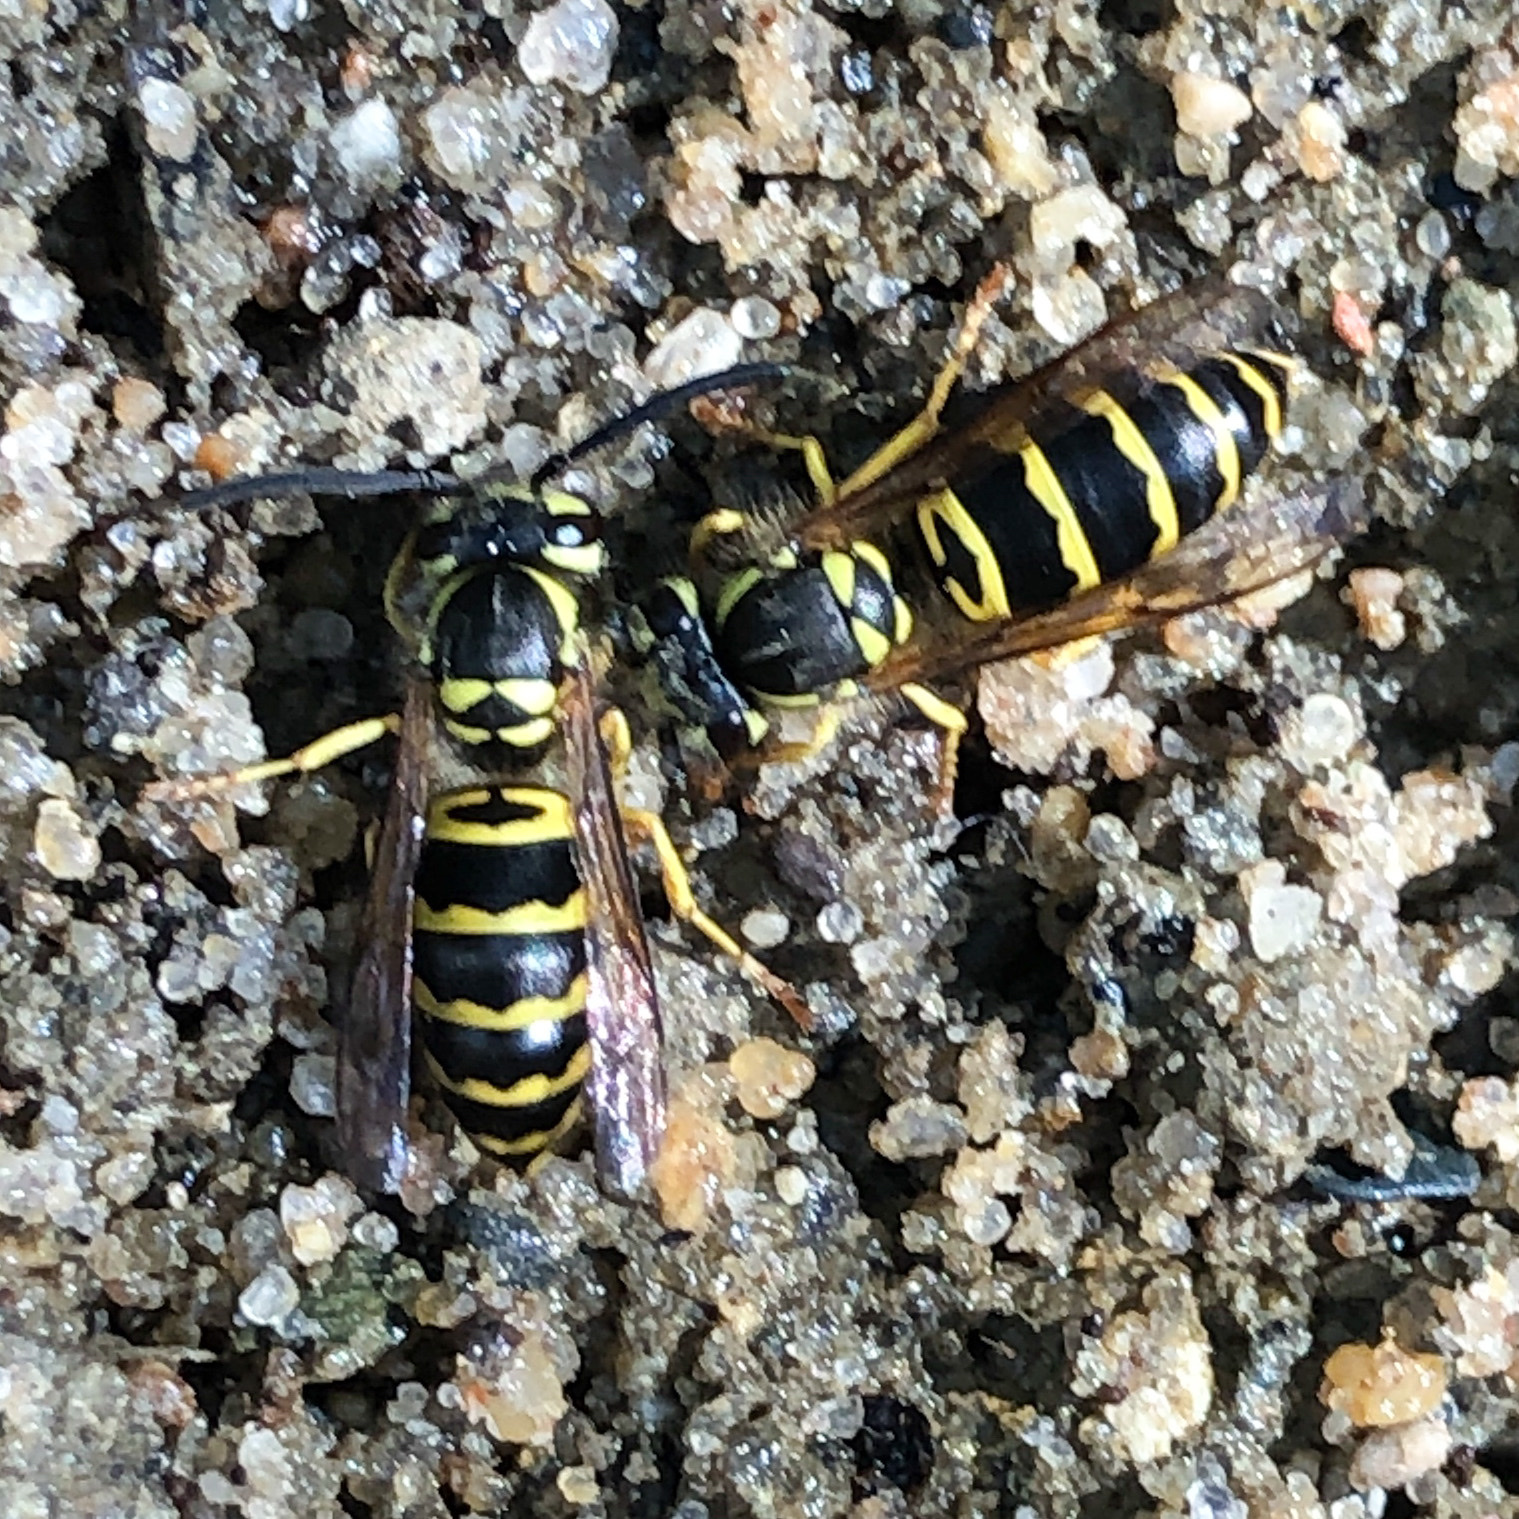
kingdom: Animalia
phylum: Arthropoda
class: Insecta
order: Hymenoptera
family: Vespidae
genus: Vespula
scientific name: Vespula maculifrons
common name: Eastern yellowjacket
